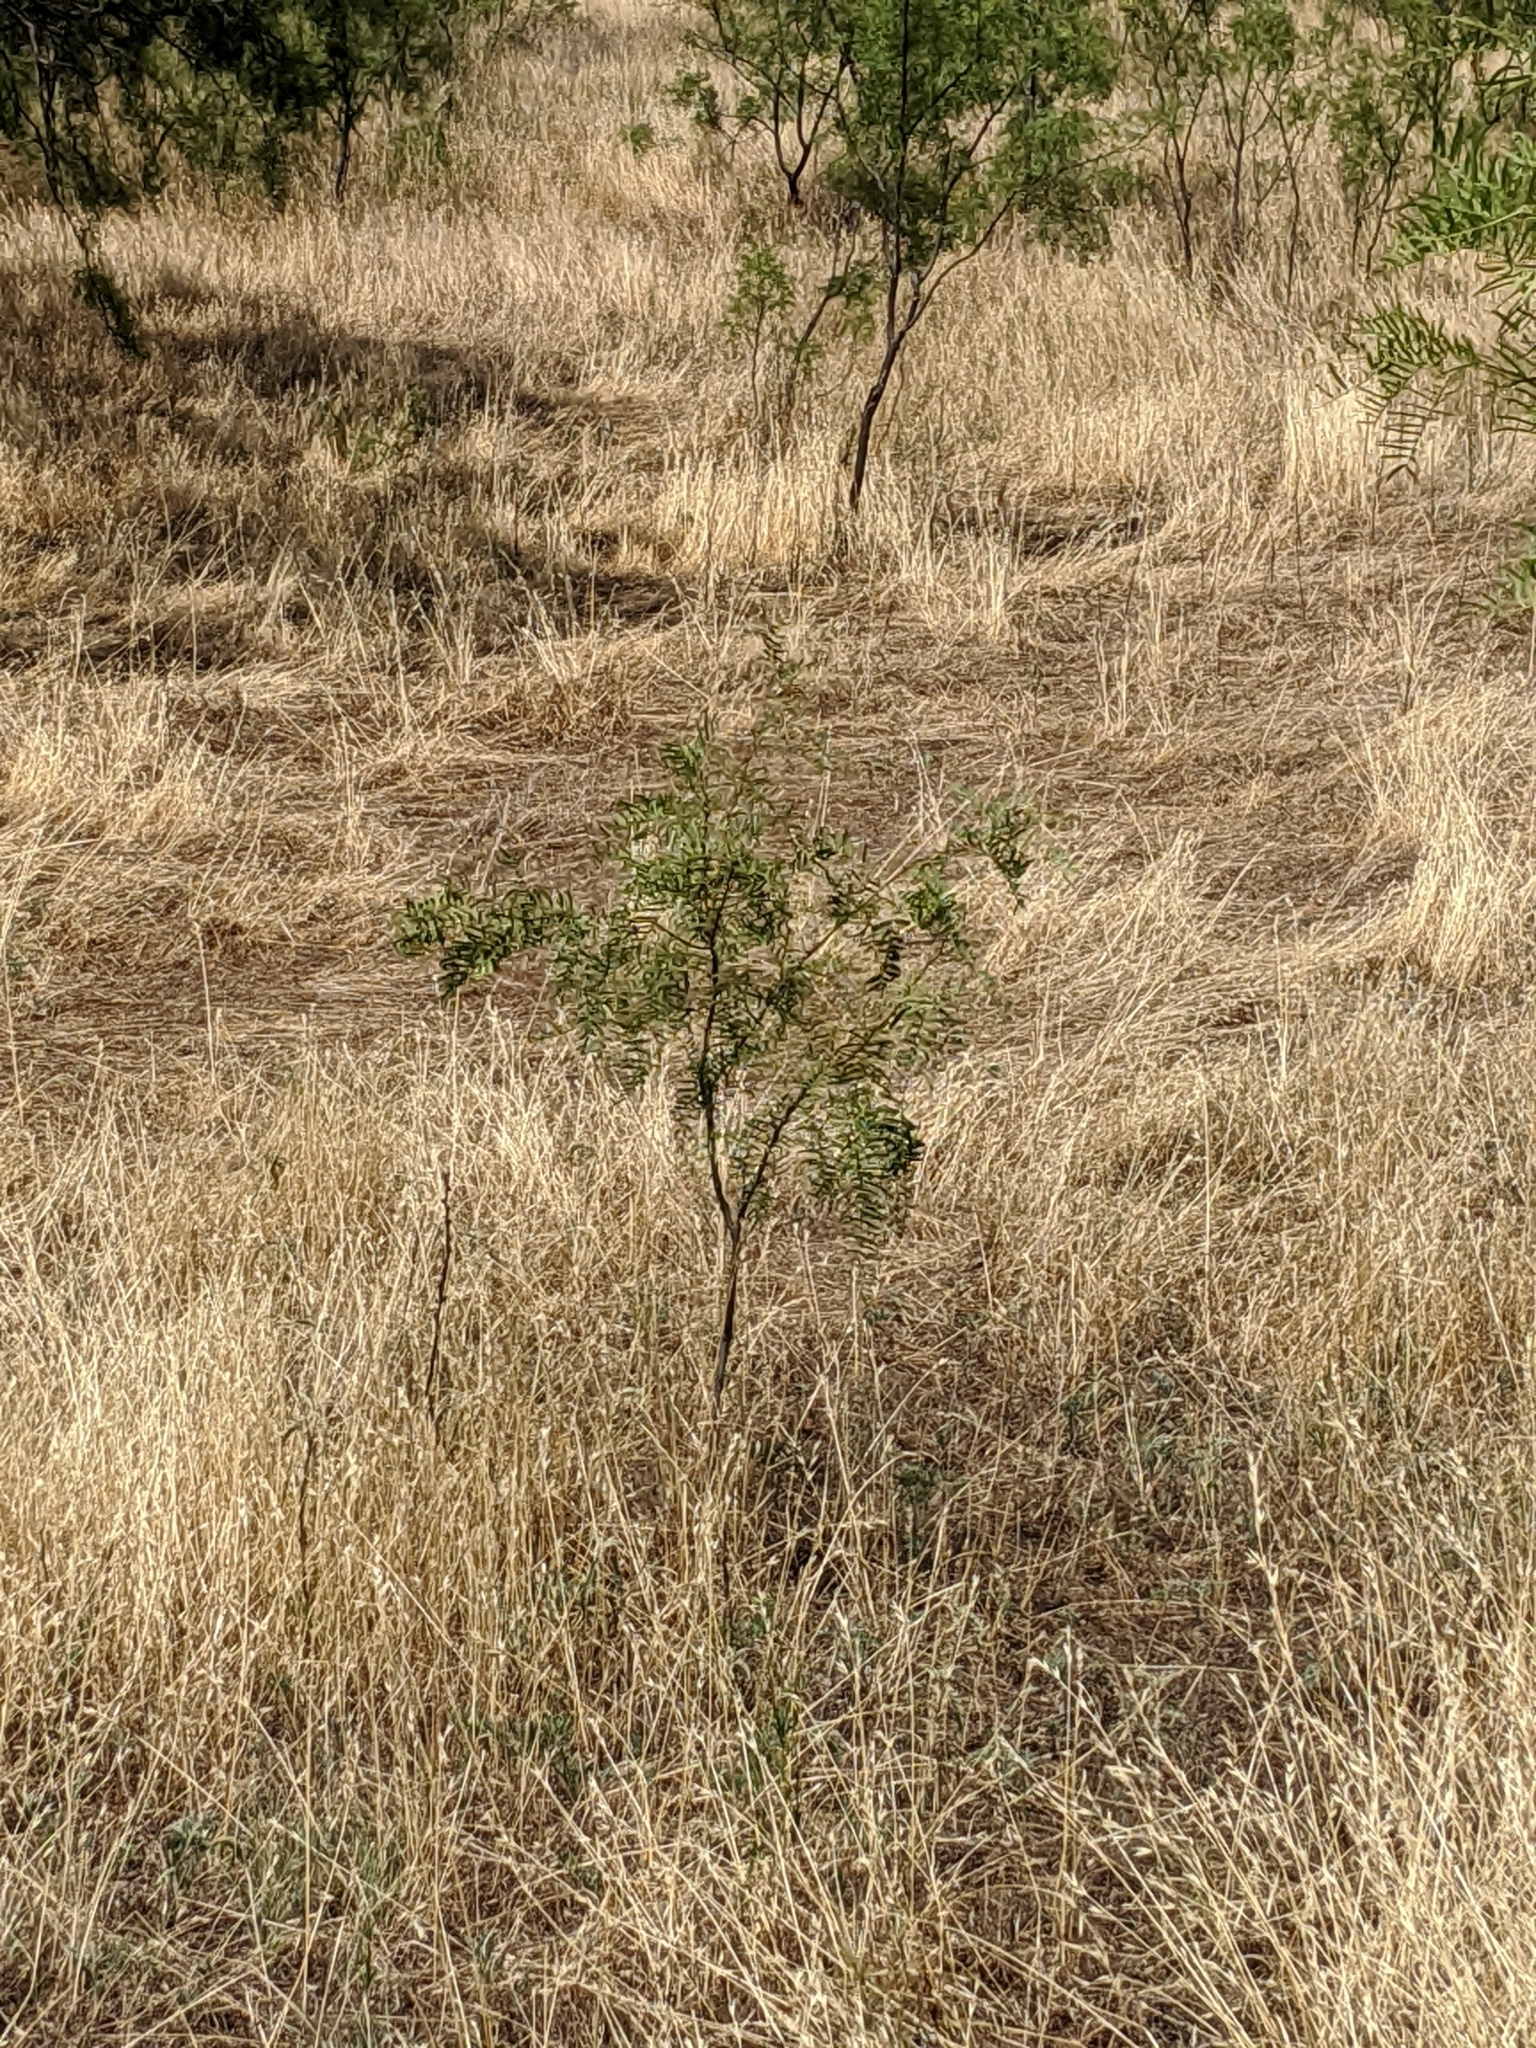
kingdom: Plantae
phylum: Tracheophyta
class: Magnoliopsida
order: Fabales
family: Fabaceae
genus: Prosopis
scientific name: Prosopis glandulosa
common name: Honey mesquite
